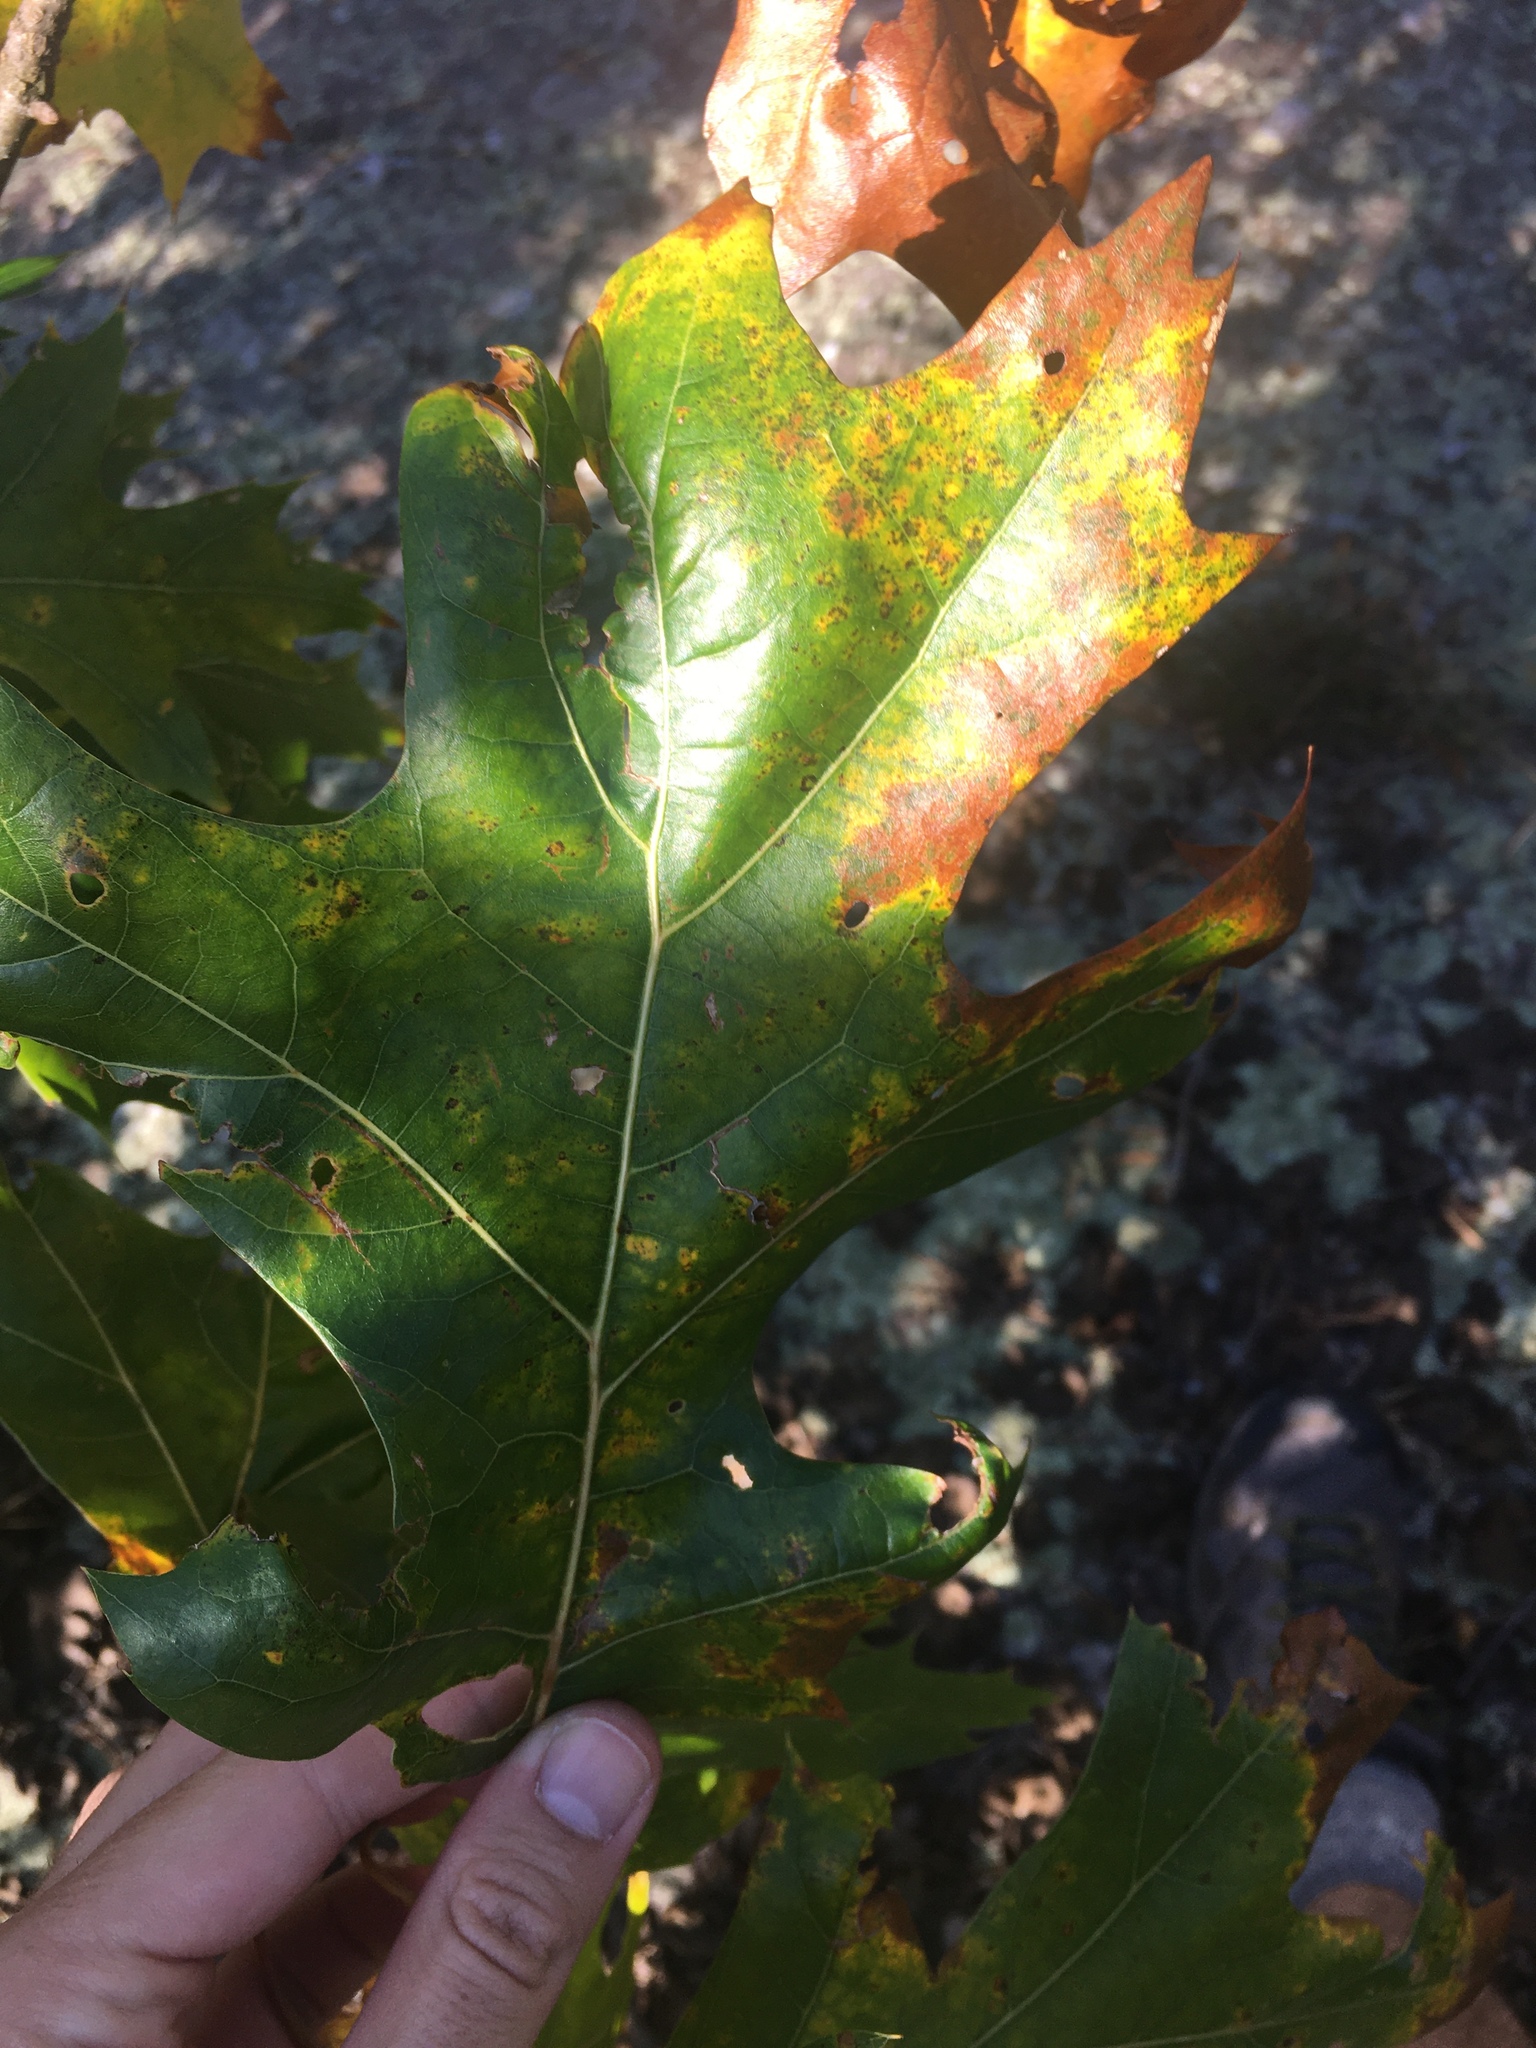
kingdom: Plantae
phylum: Tracheophyta
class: Magnoliopsida
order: Fagales
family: Fagaceae
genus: Quercus
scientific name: Quercus velutina
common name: Black oak
